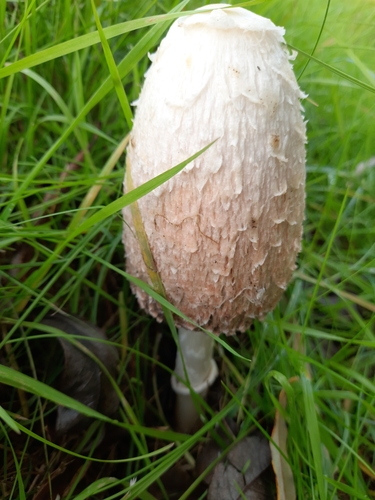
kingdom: Fungi
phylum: Basidiomycota
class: Agaricomycetes
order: Agaricales
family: Agaricaceae
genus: Coprinus
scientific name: Coprinus comatus
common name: Lawyer's wig
